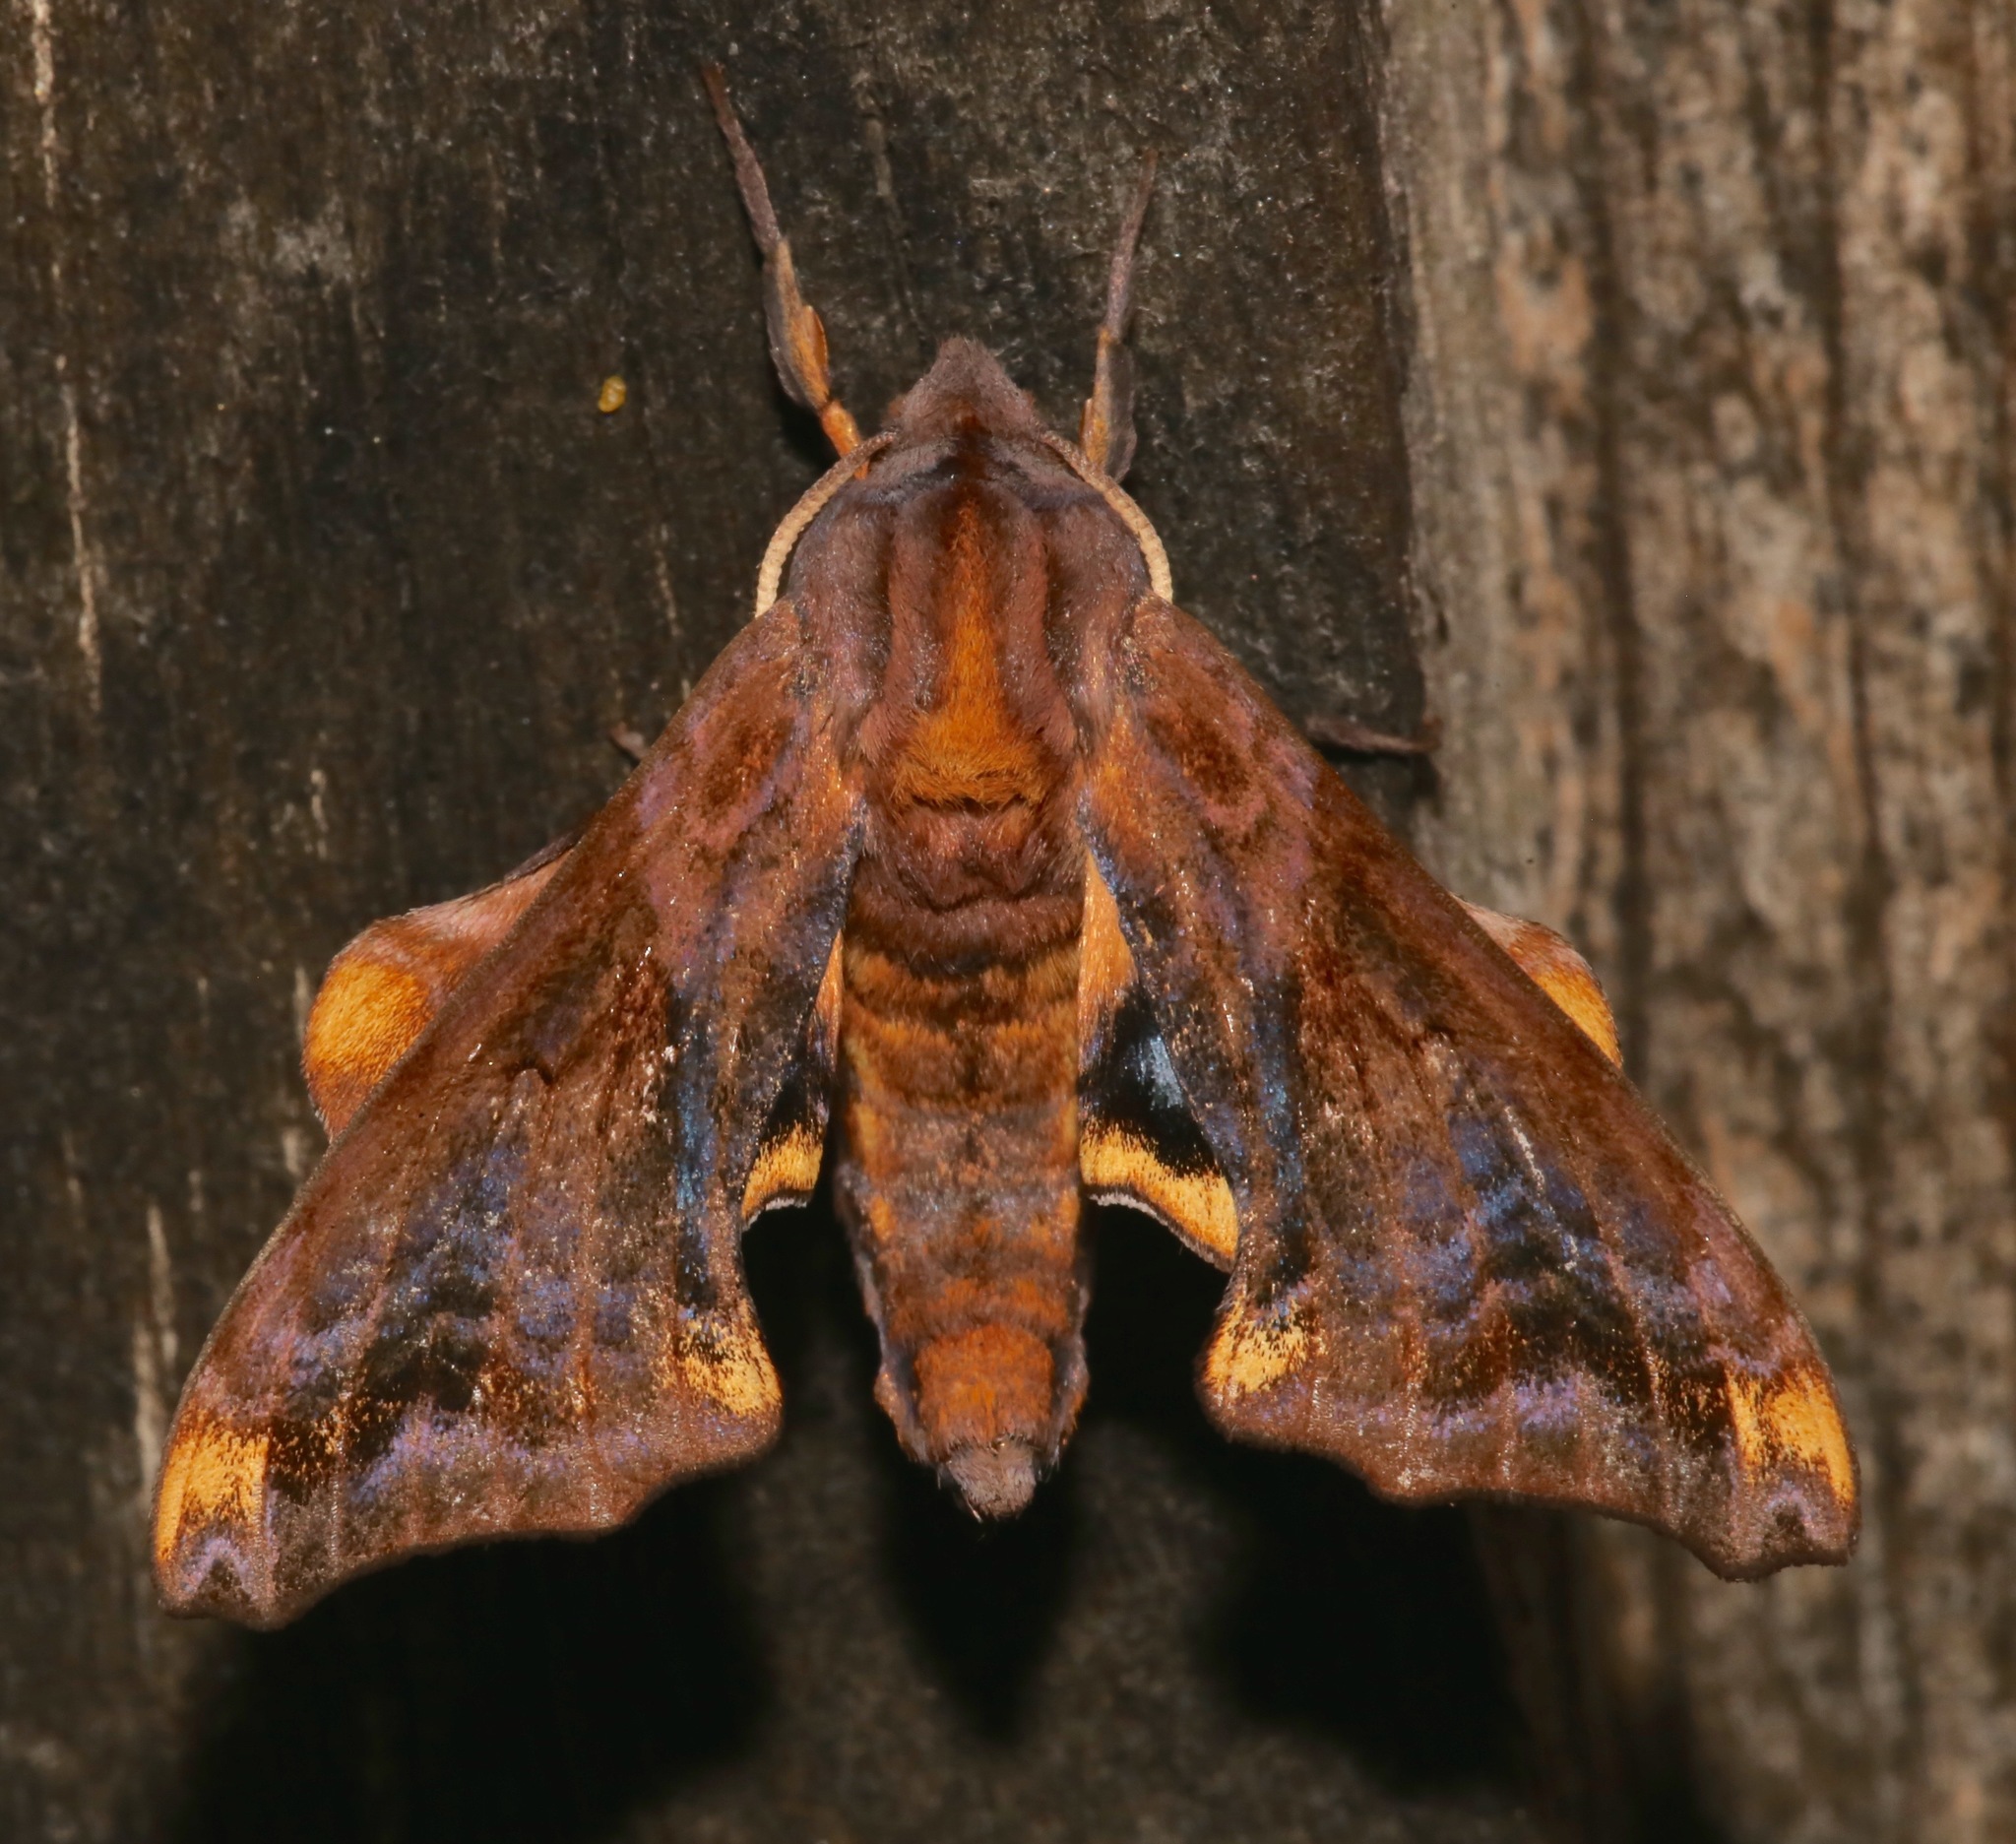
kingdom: Animalia
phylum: Arthropoda
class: Insecta
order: Lepidoptera
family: Sphingidae
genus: Paonias
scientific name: Paonias myops
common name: Small-eyed sphinx
